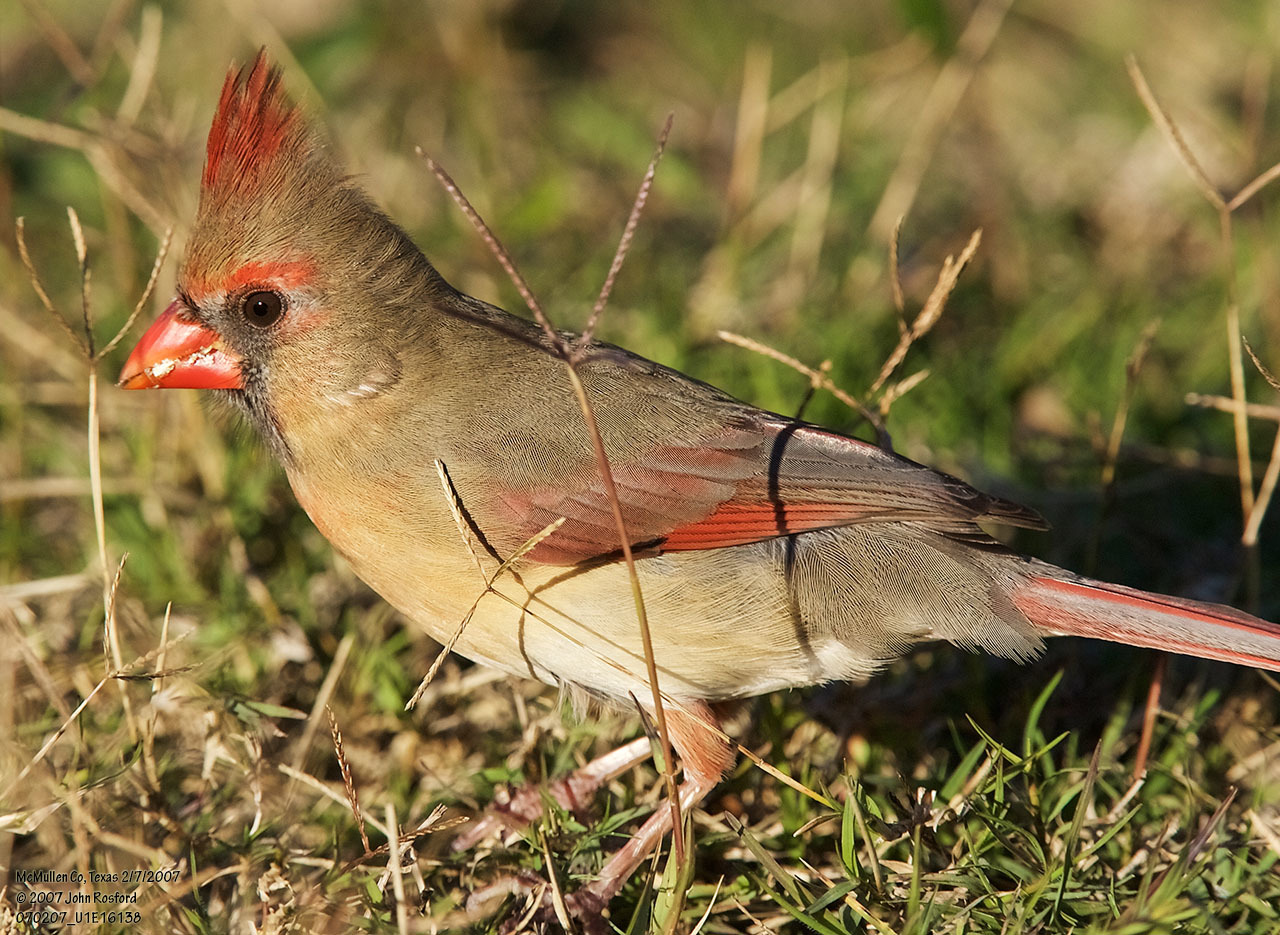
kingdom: Animalia
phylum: Chordata
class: Aves
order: Passeriformes
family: Cardinalidae
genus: Cardinalis
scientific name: Cardinalis cardinalis
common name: Northern cardinal
